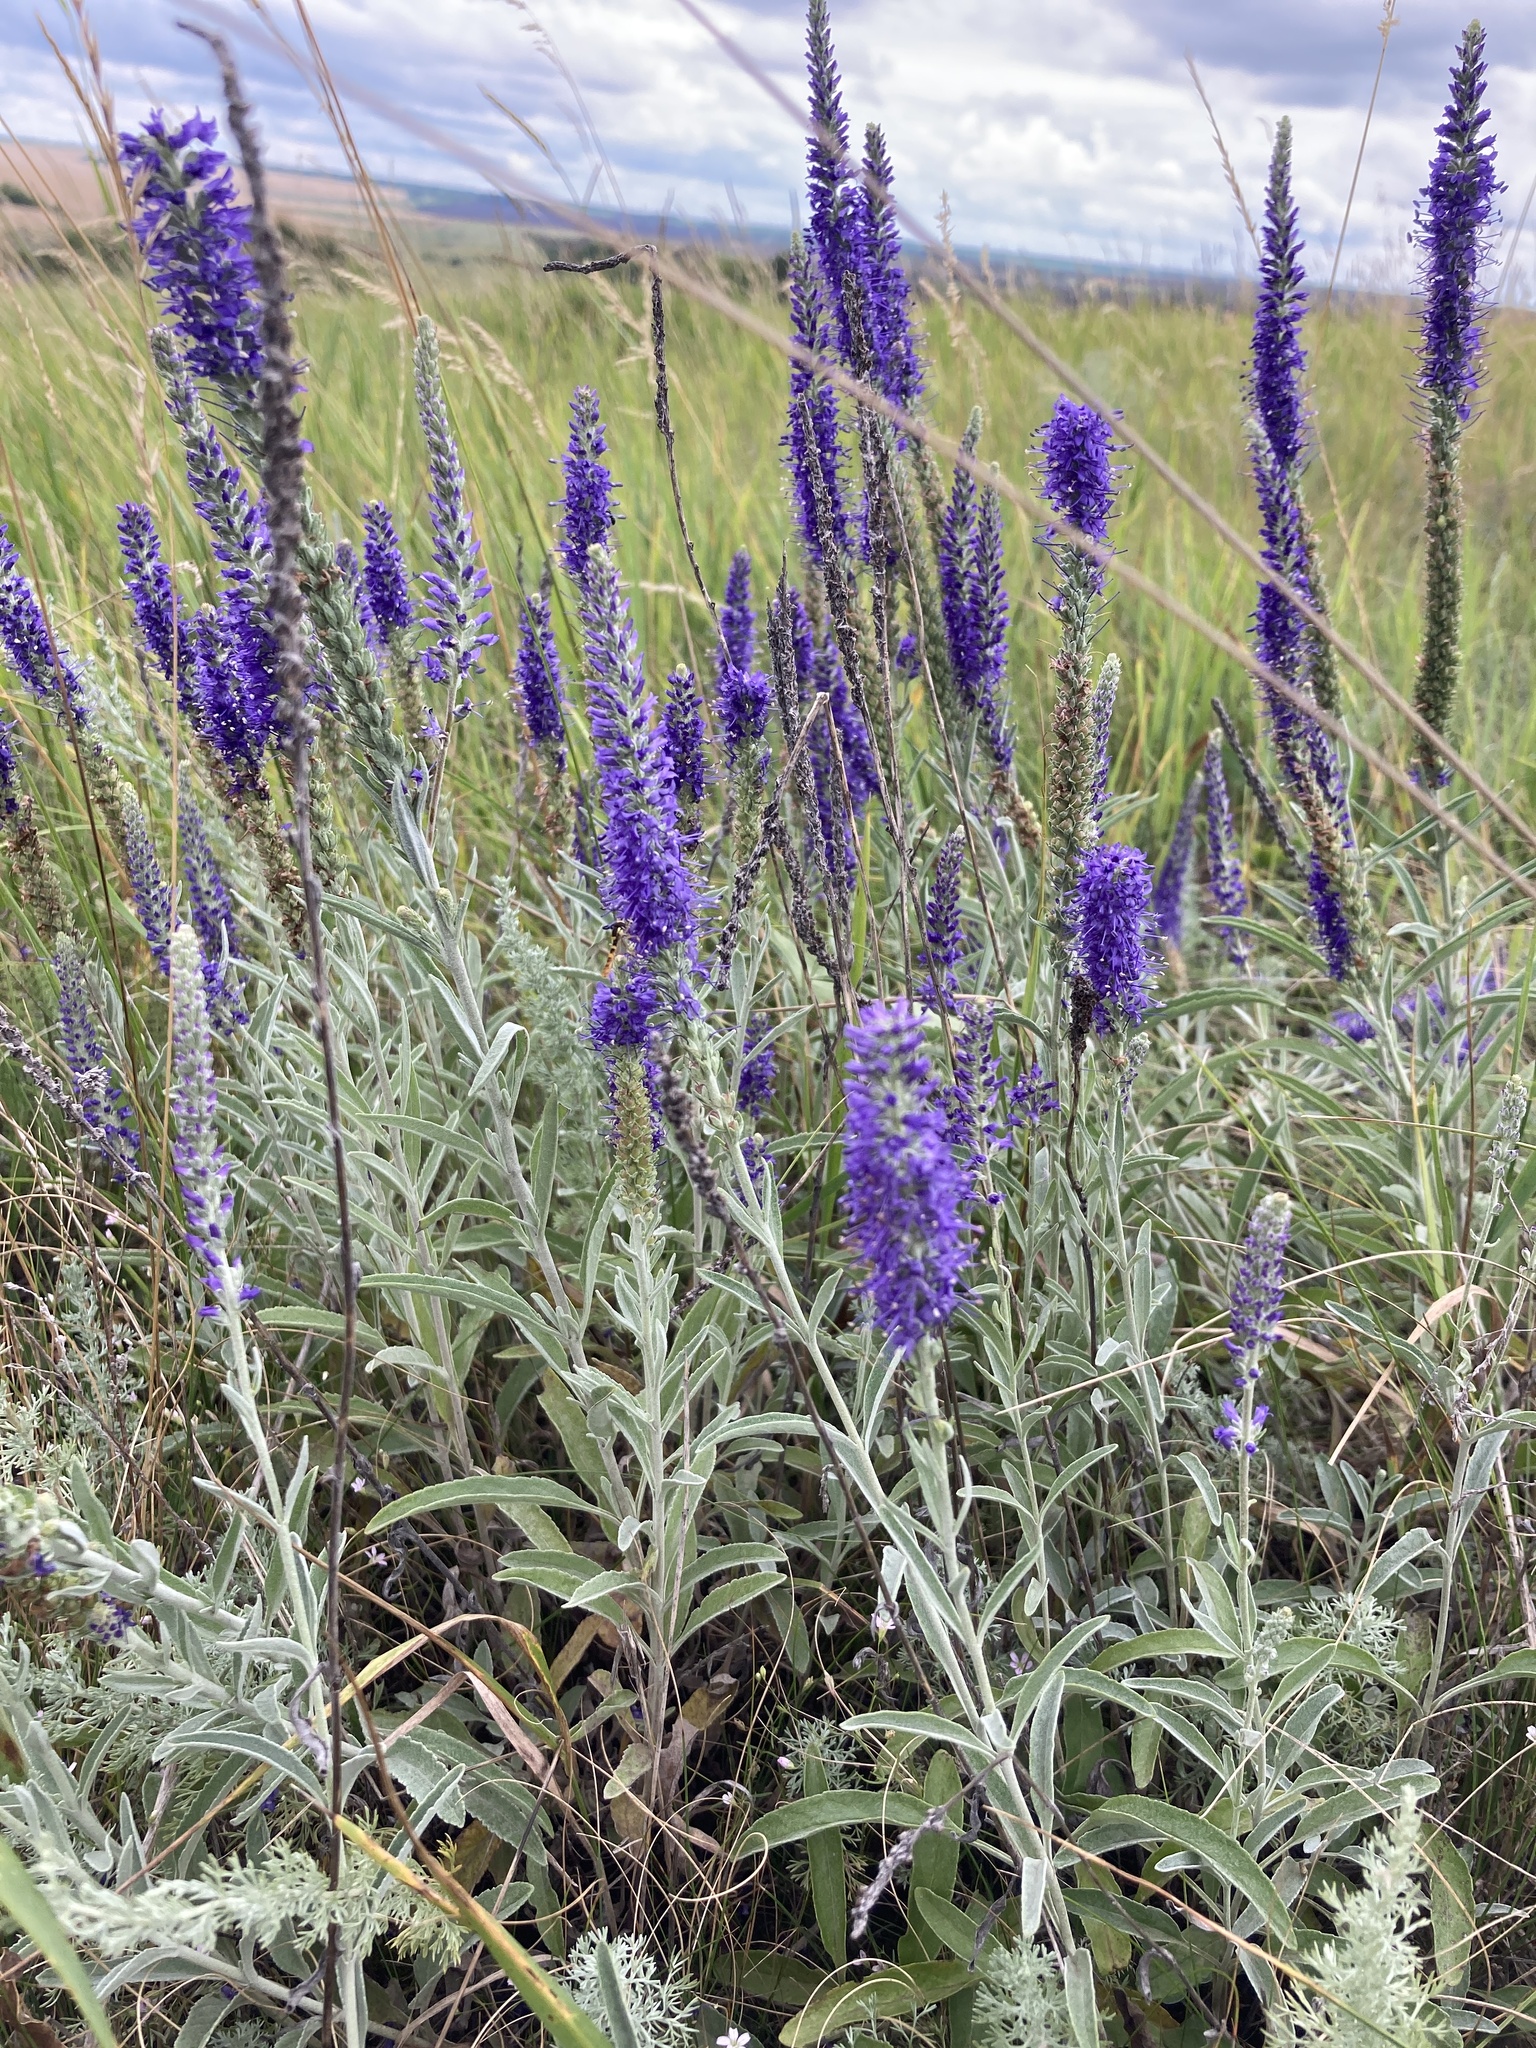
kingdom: Plantae
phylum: Tracheophyta
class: Magnoliopsida
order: Lamiales
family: Plantaginaceae
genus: Veronica
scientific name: Veronica incana
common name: Silver speedwell
